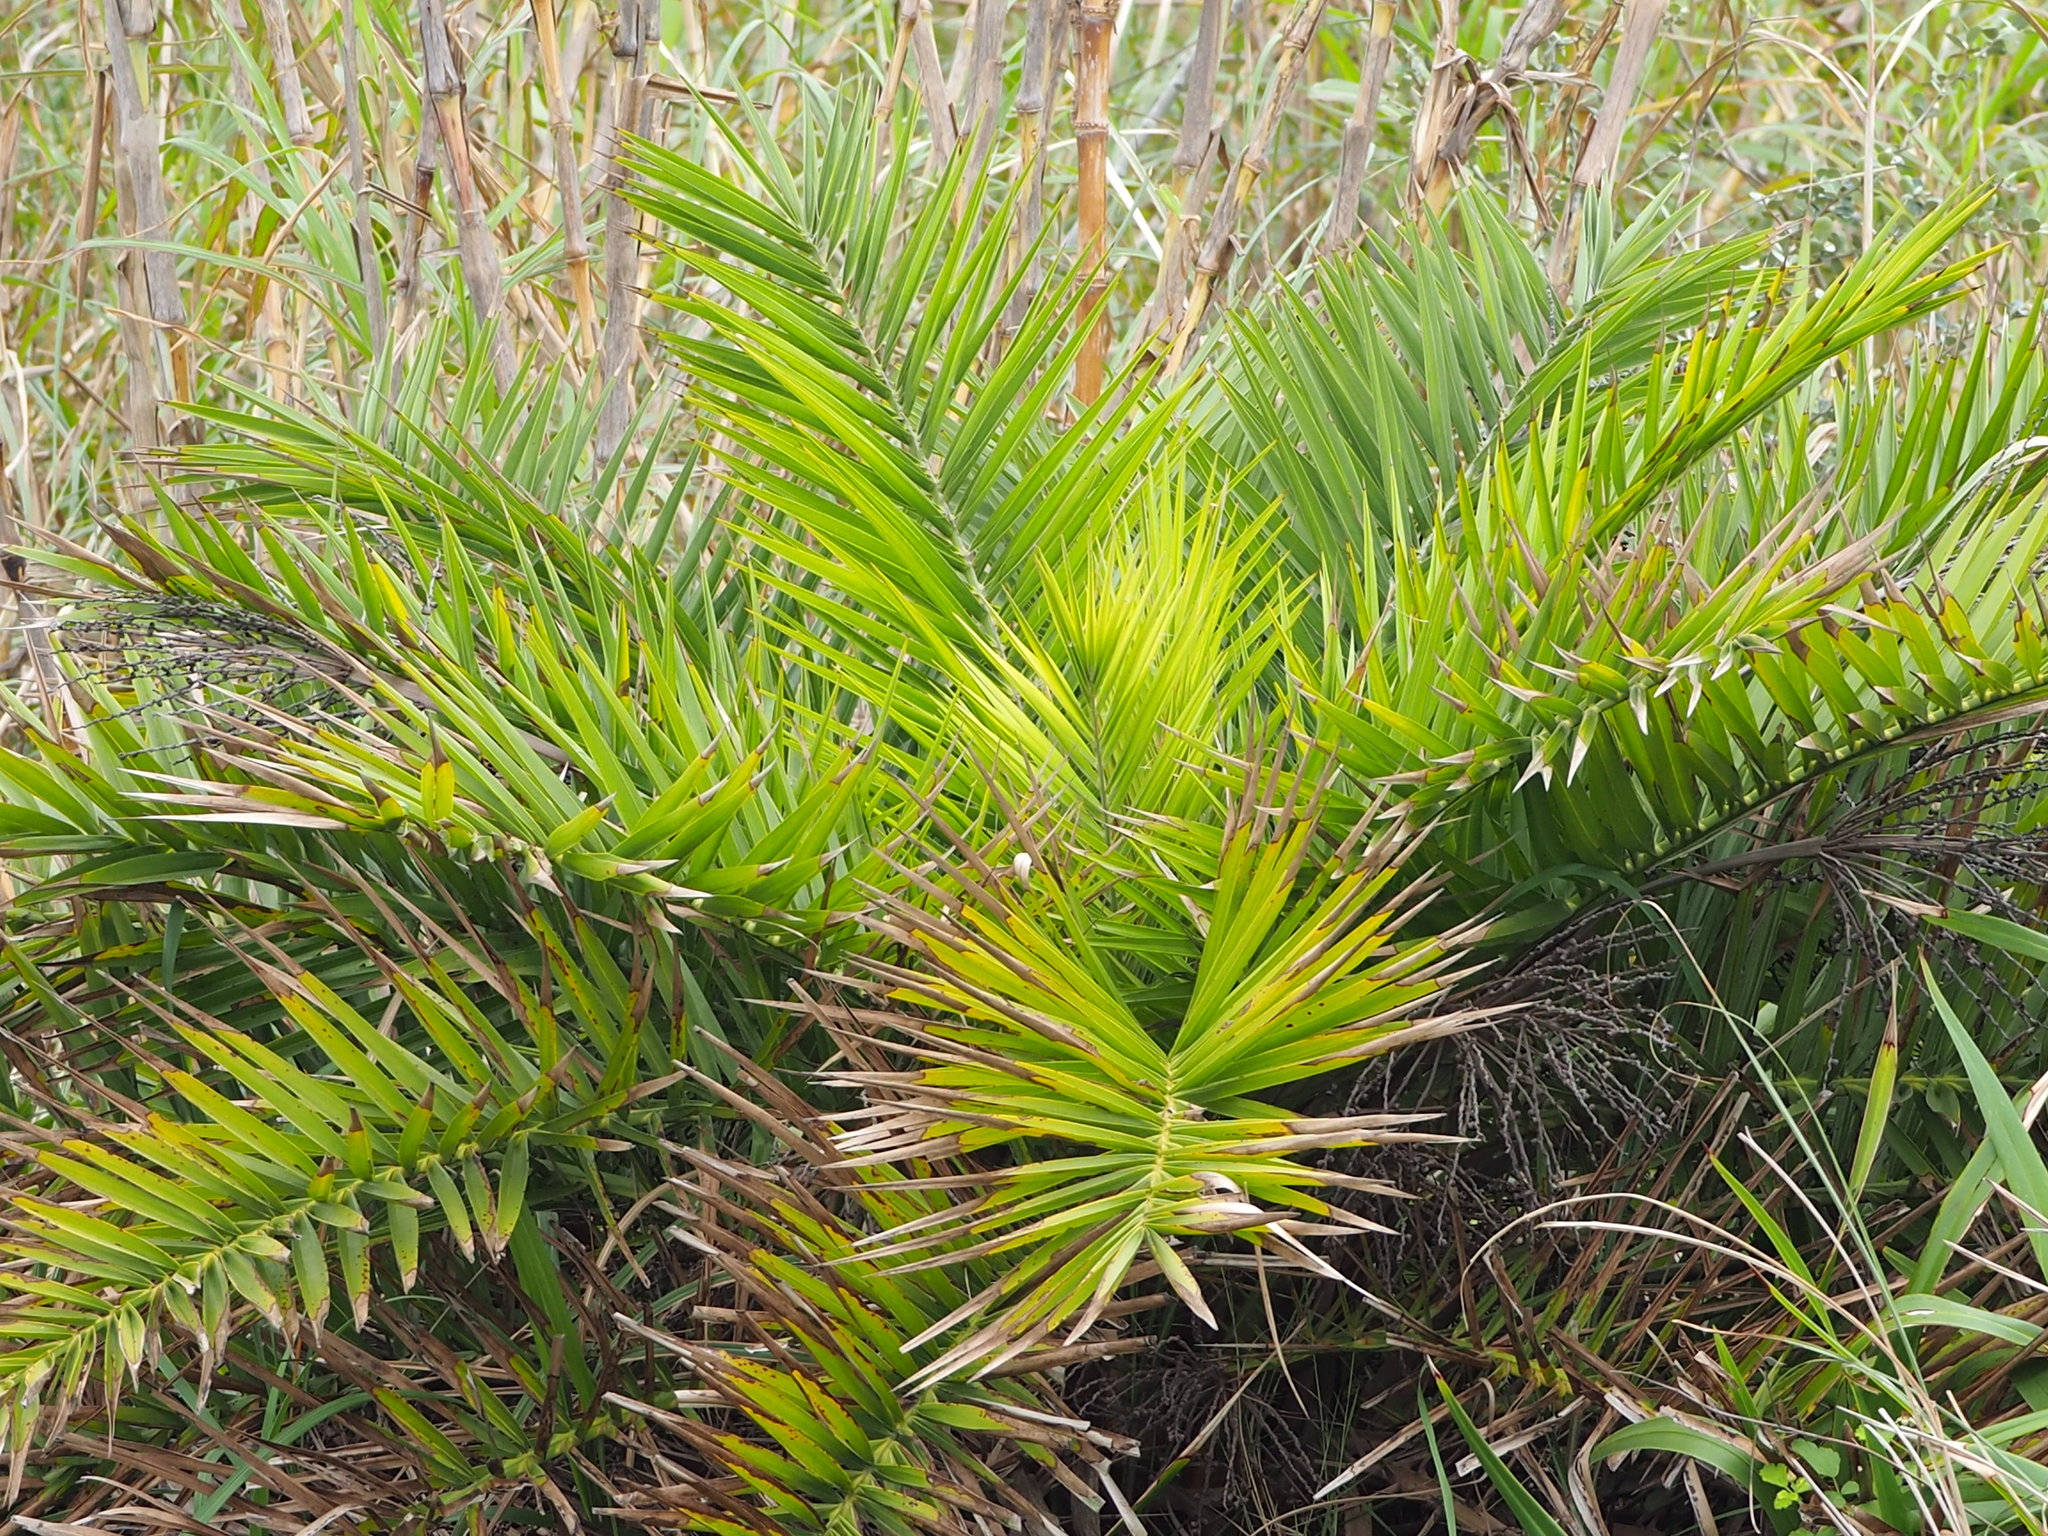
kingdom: Plantae
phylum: Tracheophyta
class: Liliopsida
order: Arecales
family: Arecaceae
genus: Phoenix
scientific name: Phoenix loureiroi
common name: Loureiro's palm
